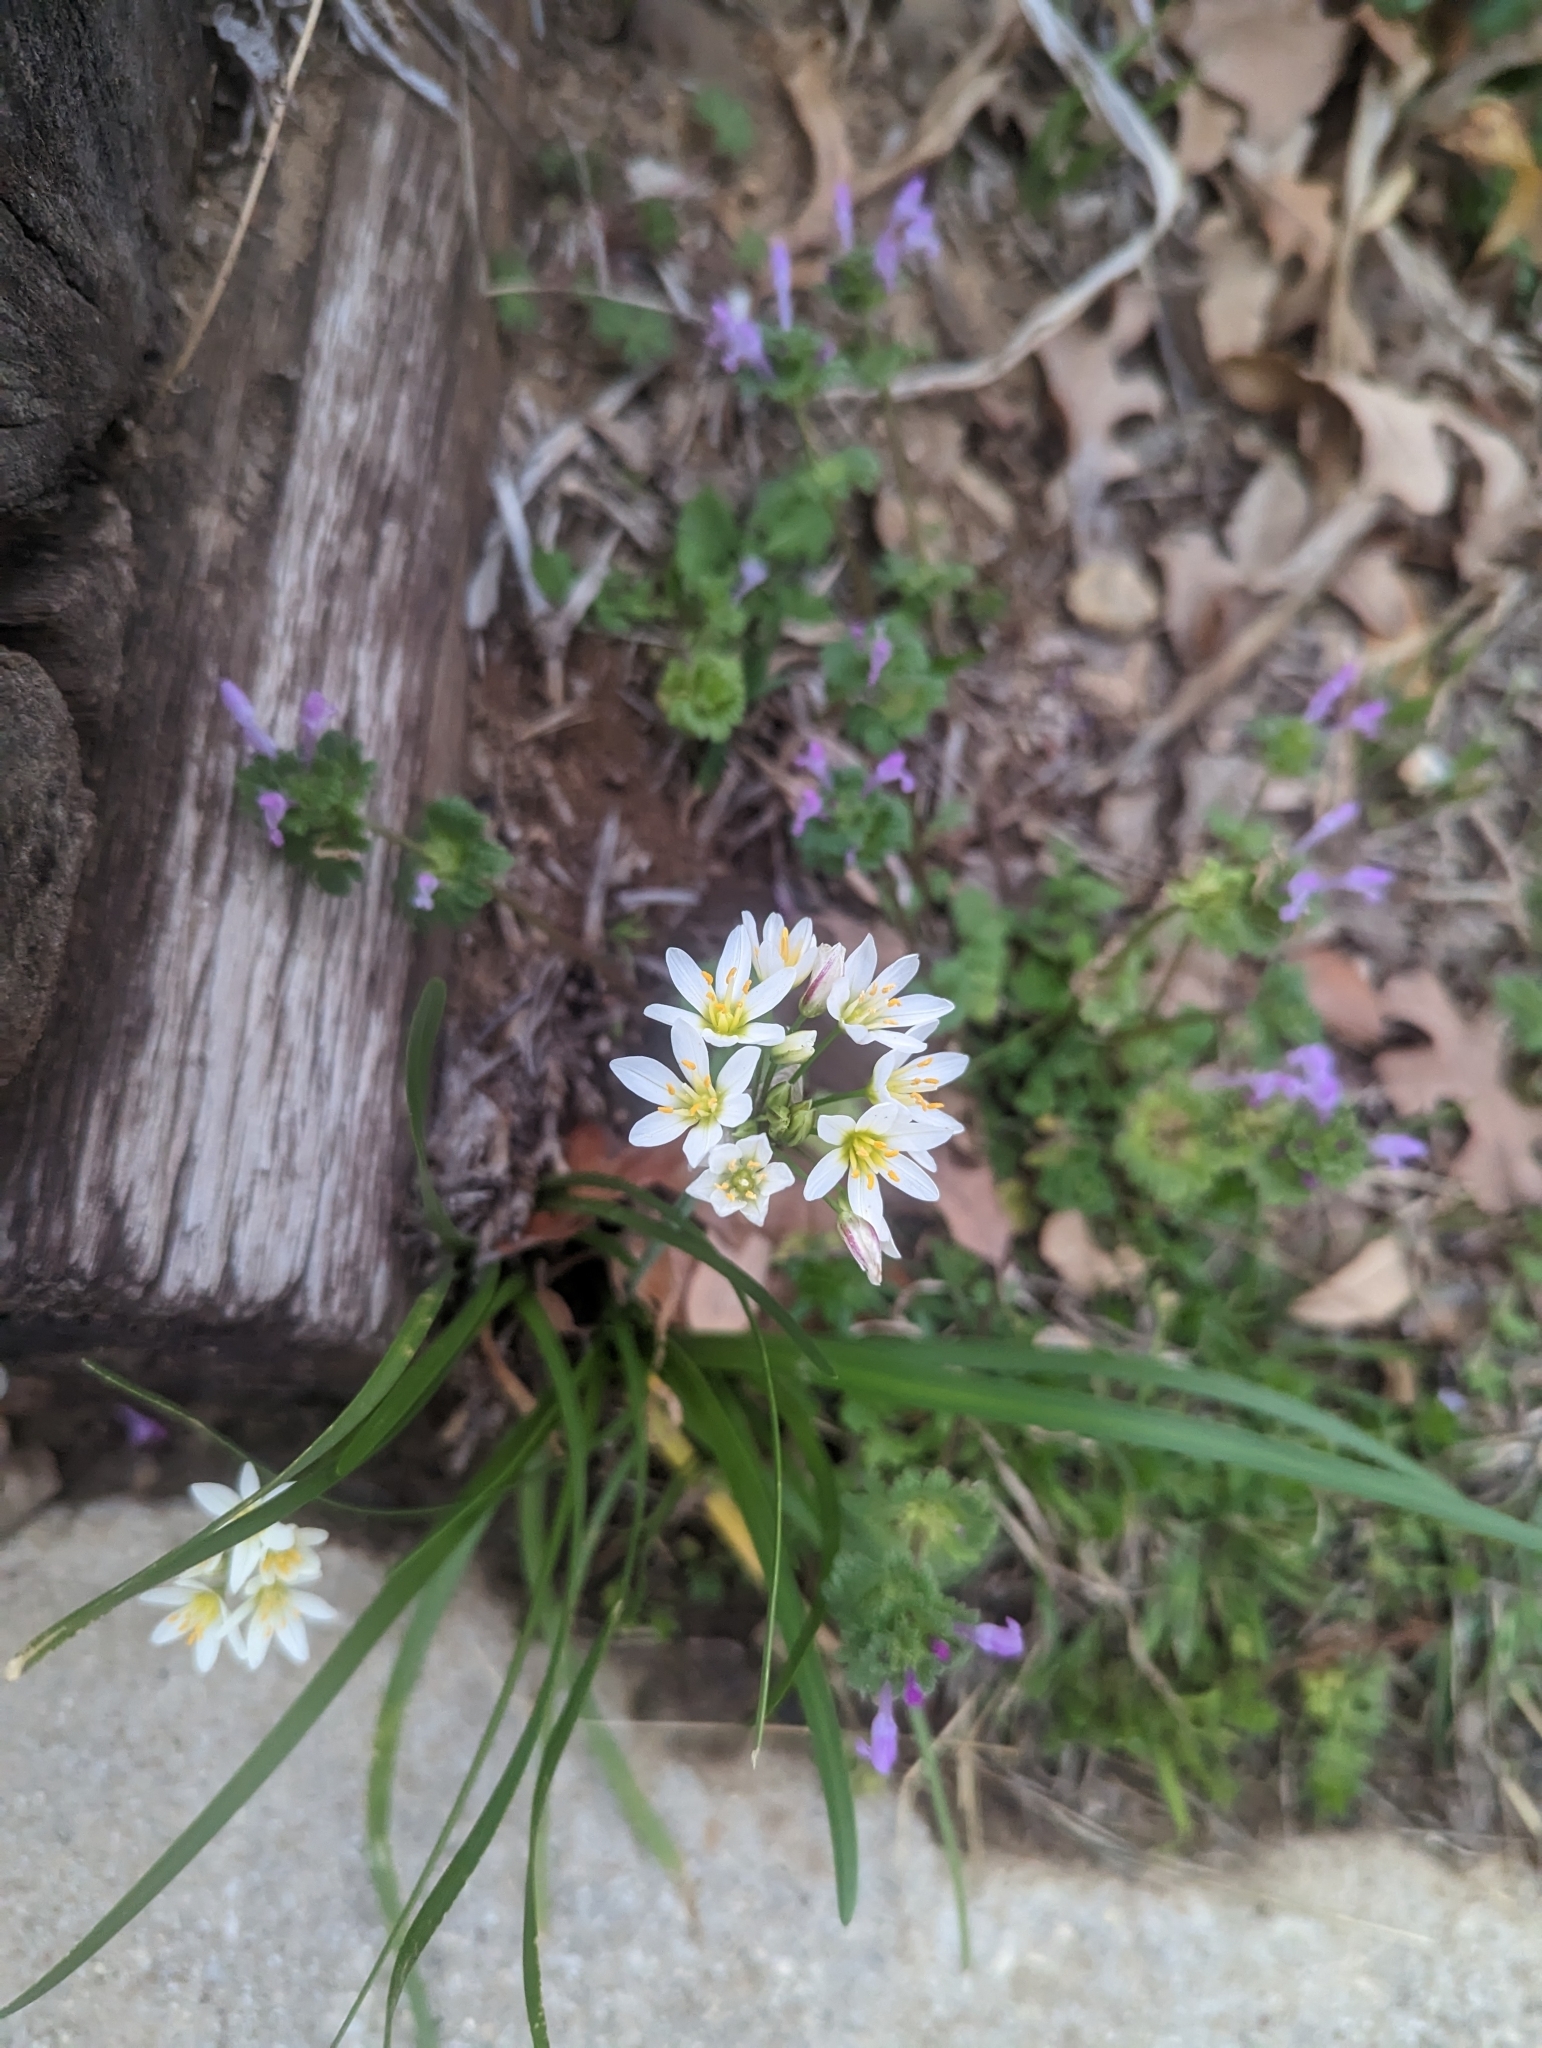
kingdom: Plantae
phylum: Tracheophyta
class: Liliopsida
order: Asparagales
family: Amaryllidaceae
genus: Nothoscordum
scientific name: Nothoscordum bivalve
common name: Crow-poison
